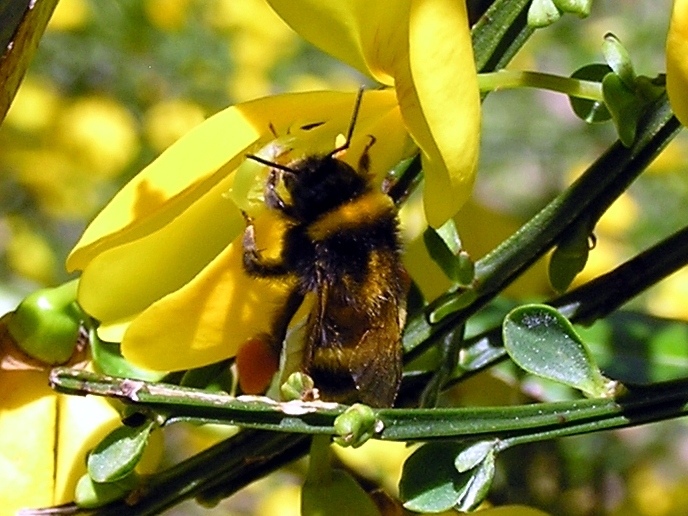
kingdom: Animalia
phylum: Arthropoda
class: Insecta
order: Hymenoptera
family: Apidae
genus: Bombus
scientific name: Bombus terrestris
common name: Buff-tailed bumblebee
